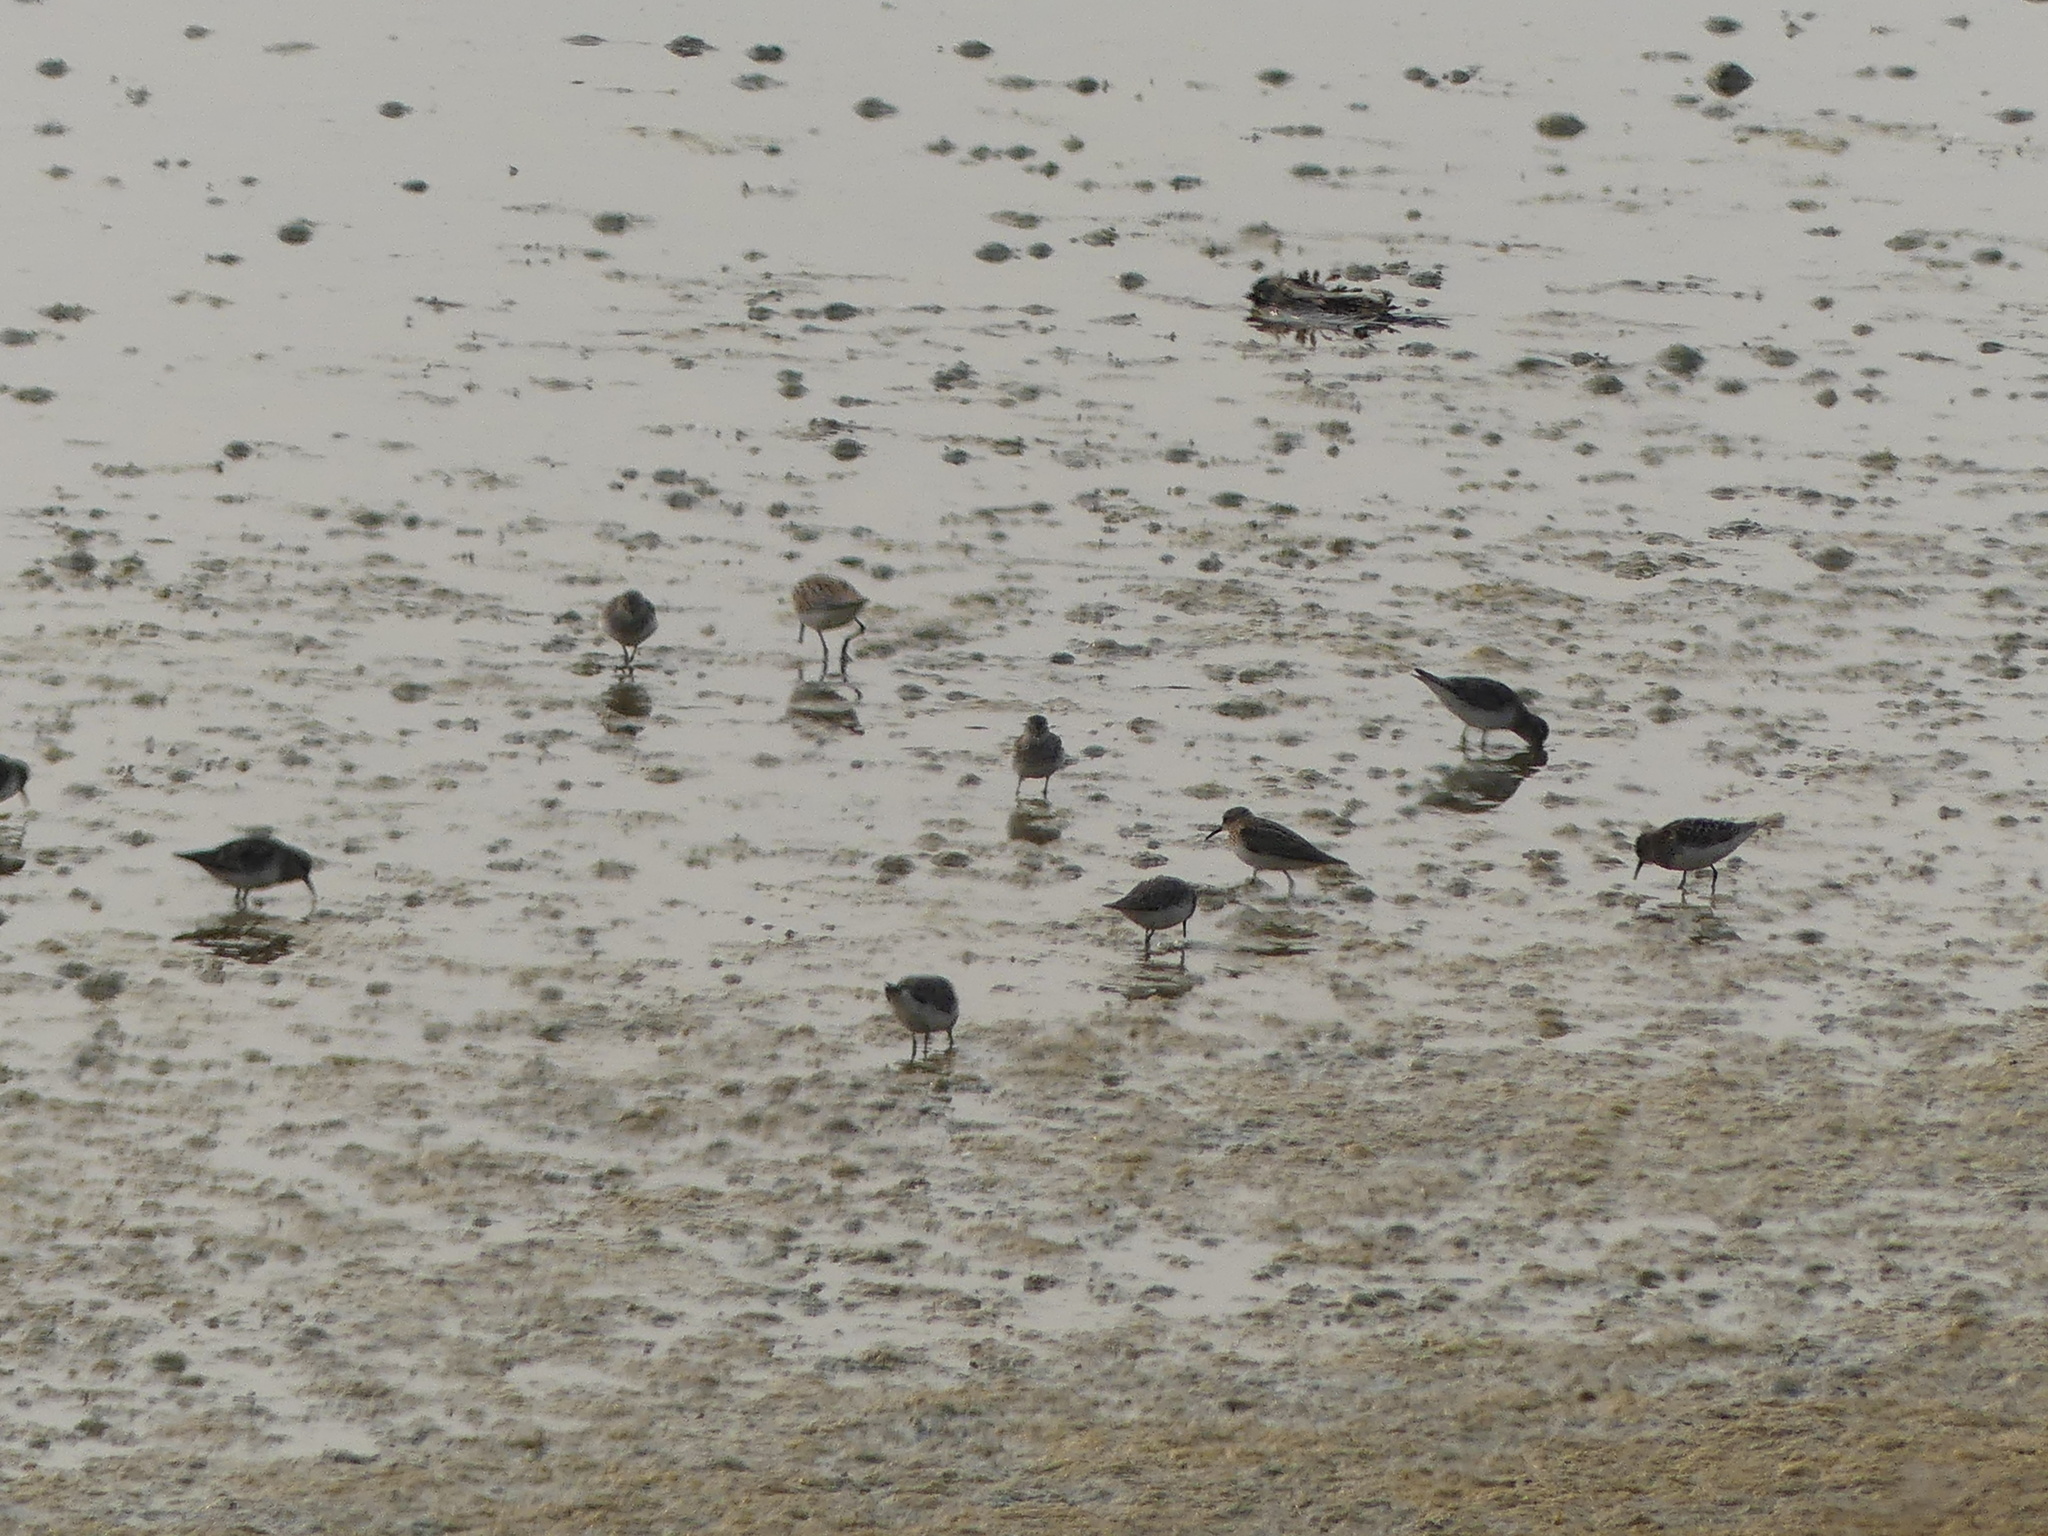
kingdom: Animalia
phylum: Chordata
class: Aves
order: Charadriiformes
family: Scolopacidae
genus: Calidris
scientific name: Calidris minutilla
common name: Least sandpiper
